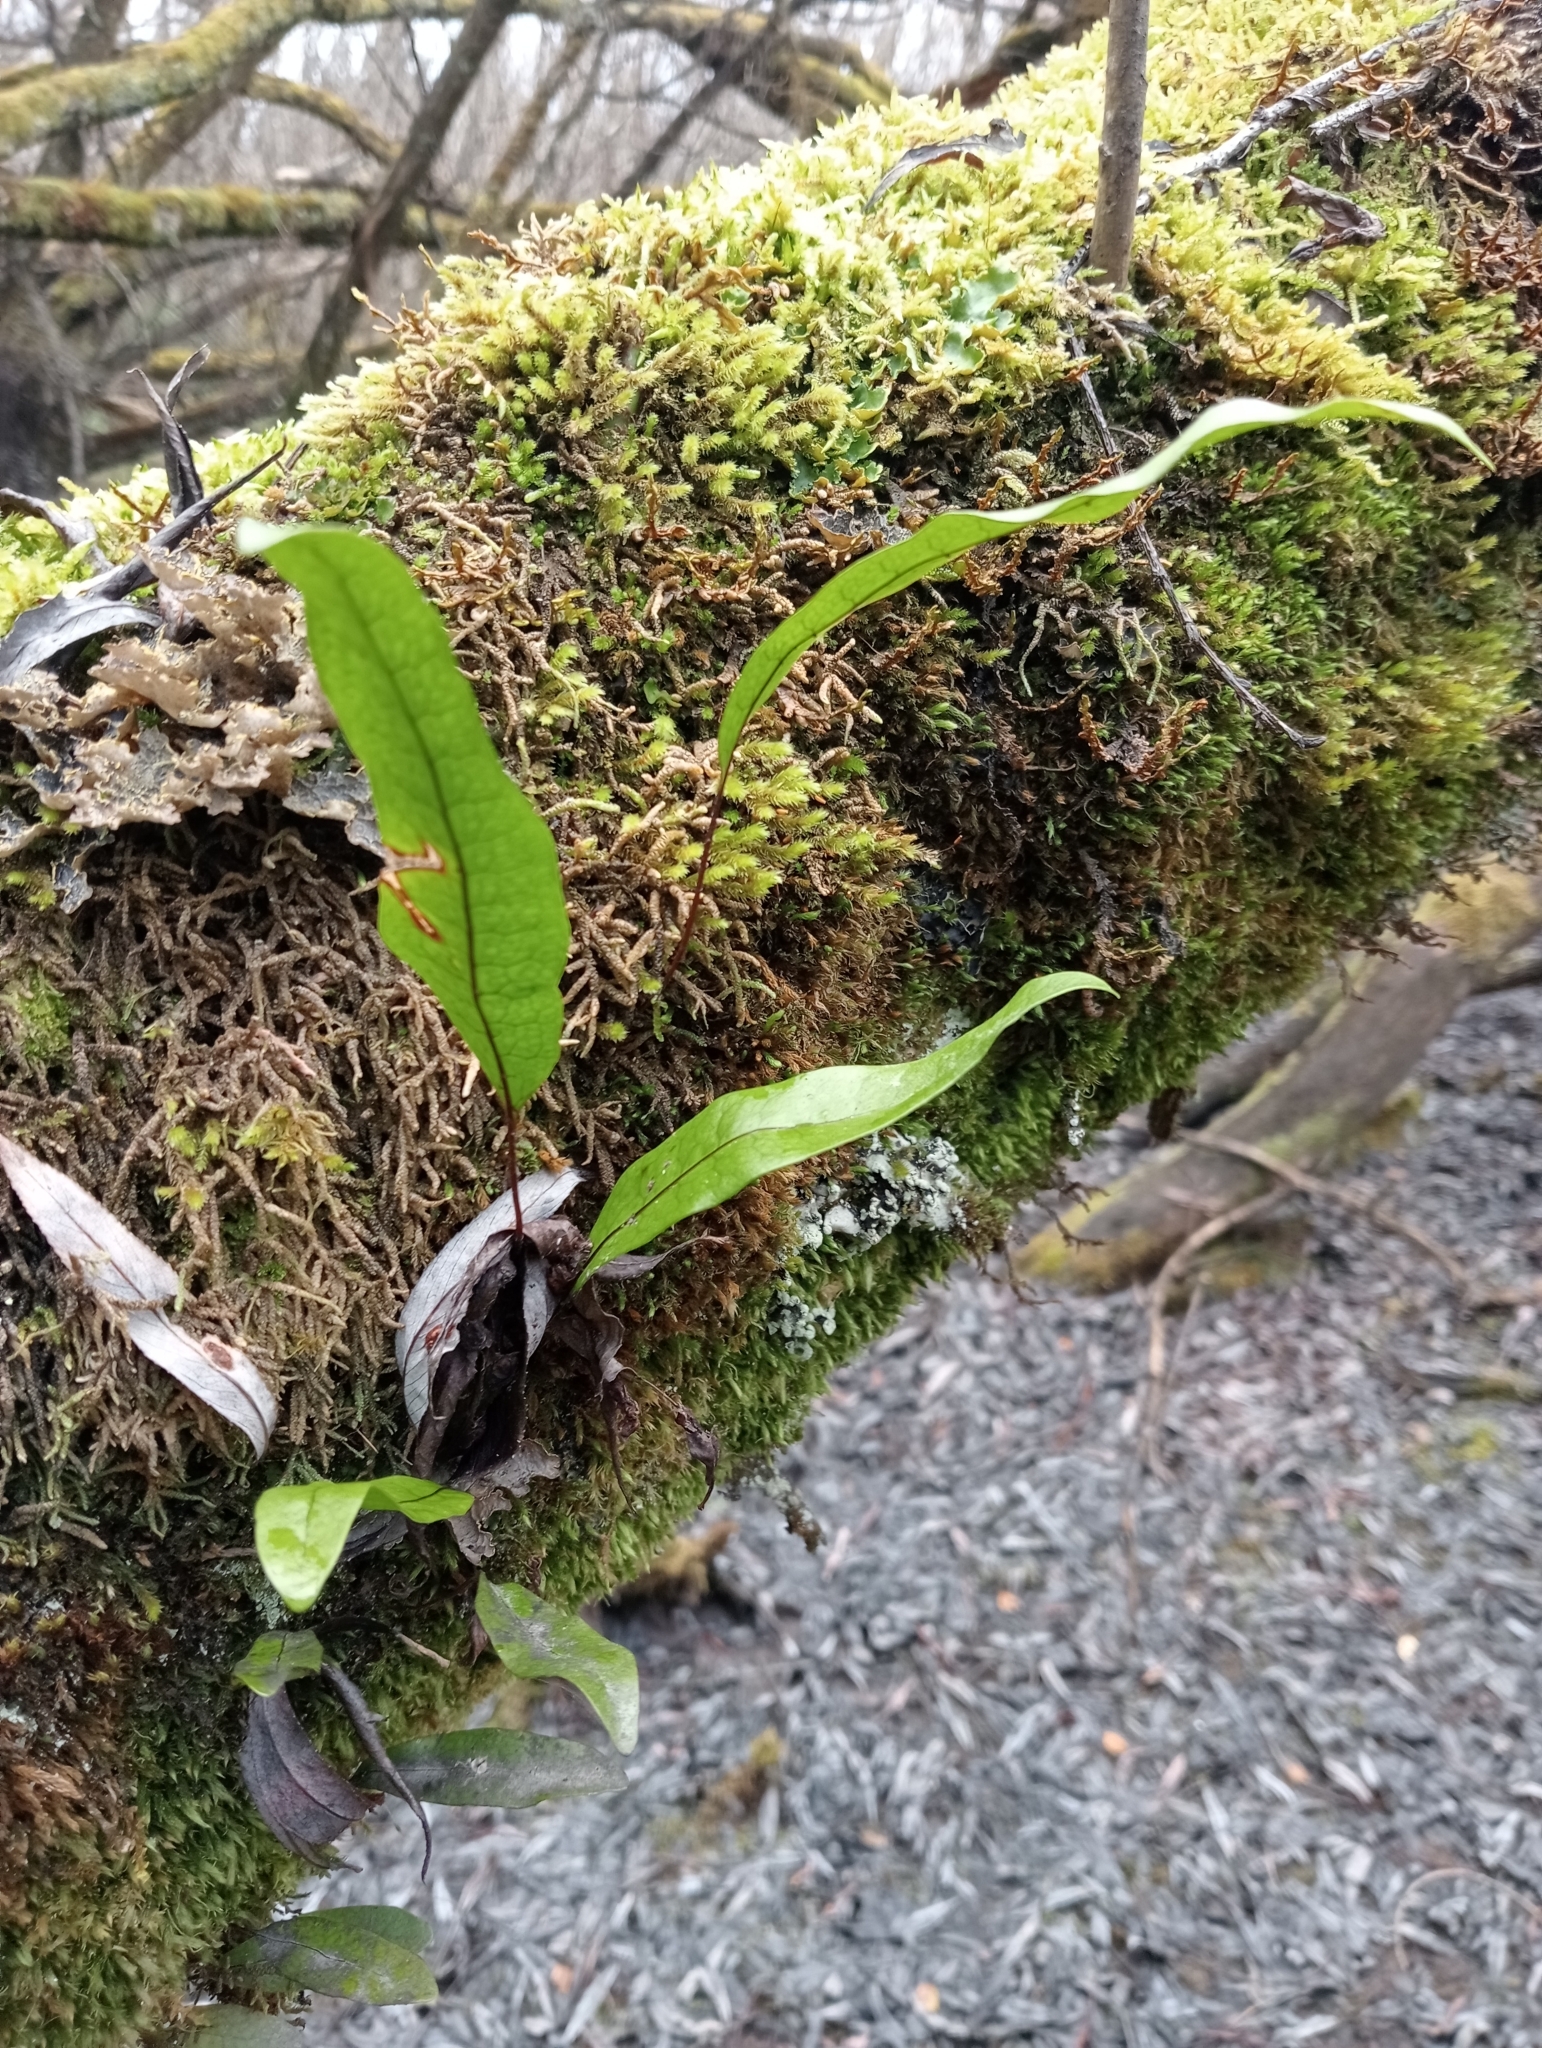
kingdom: Plantae
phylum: Tracheophyta
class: Polypodiopsida
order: Polypodiales
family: Polypodiaceae
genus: Lecanopteris
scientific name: Lecanopteris pustulata
